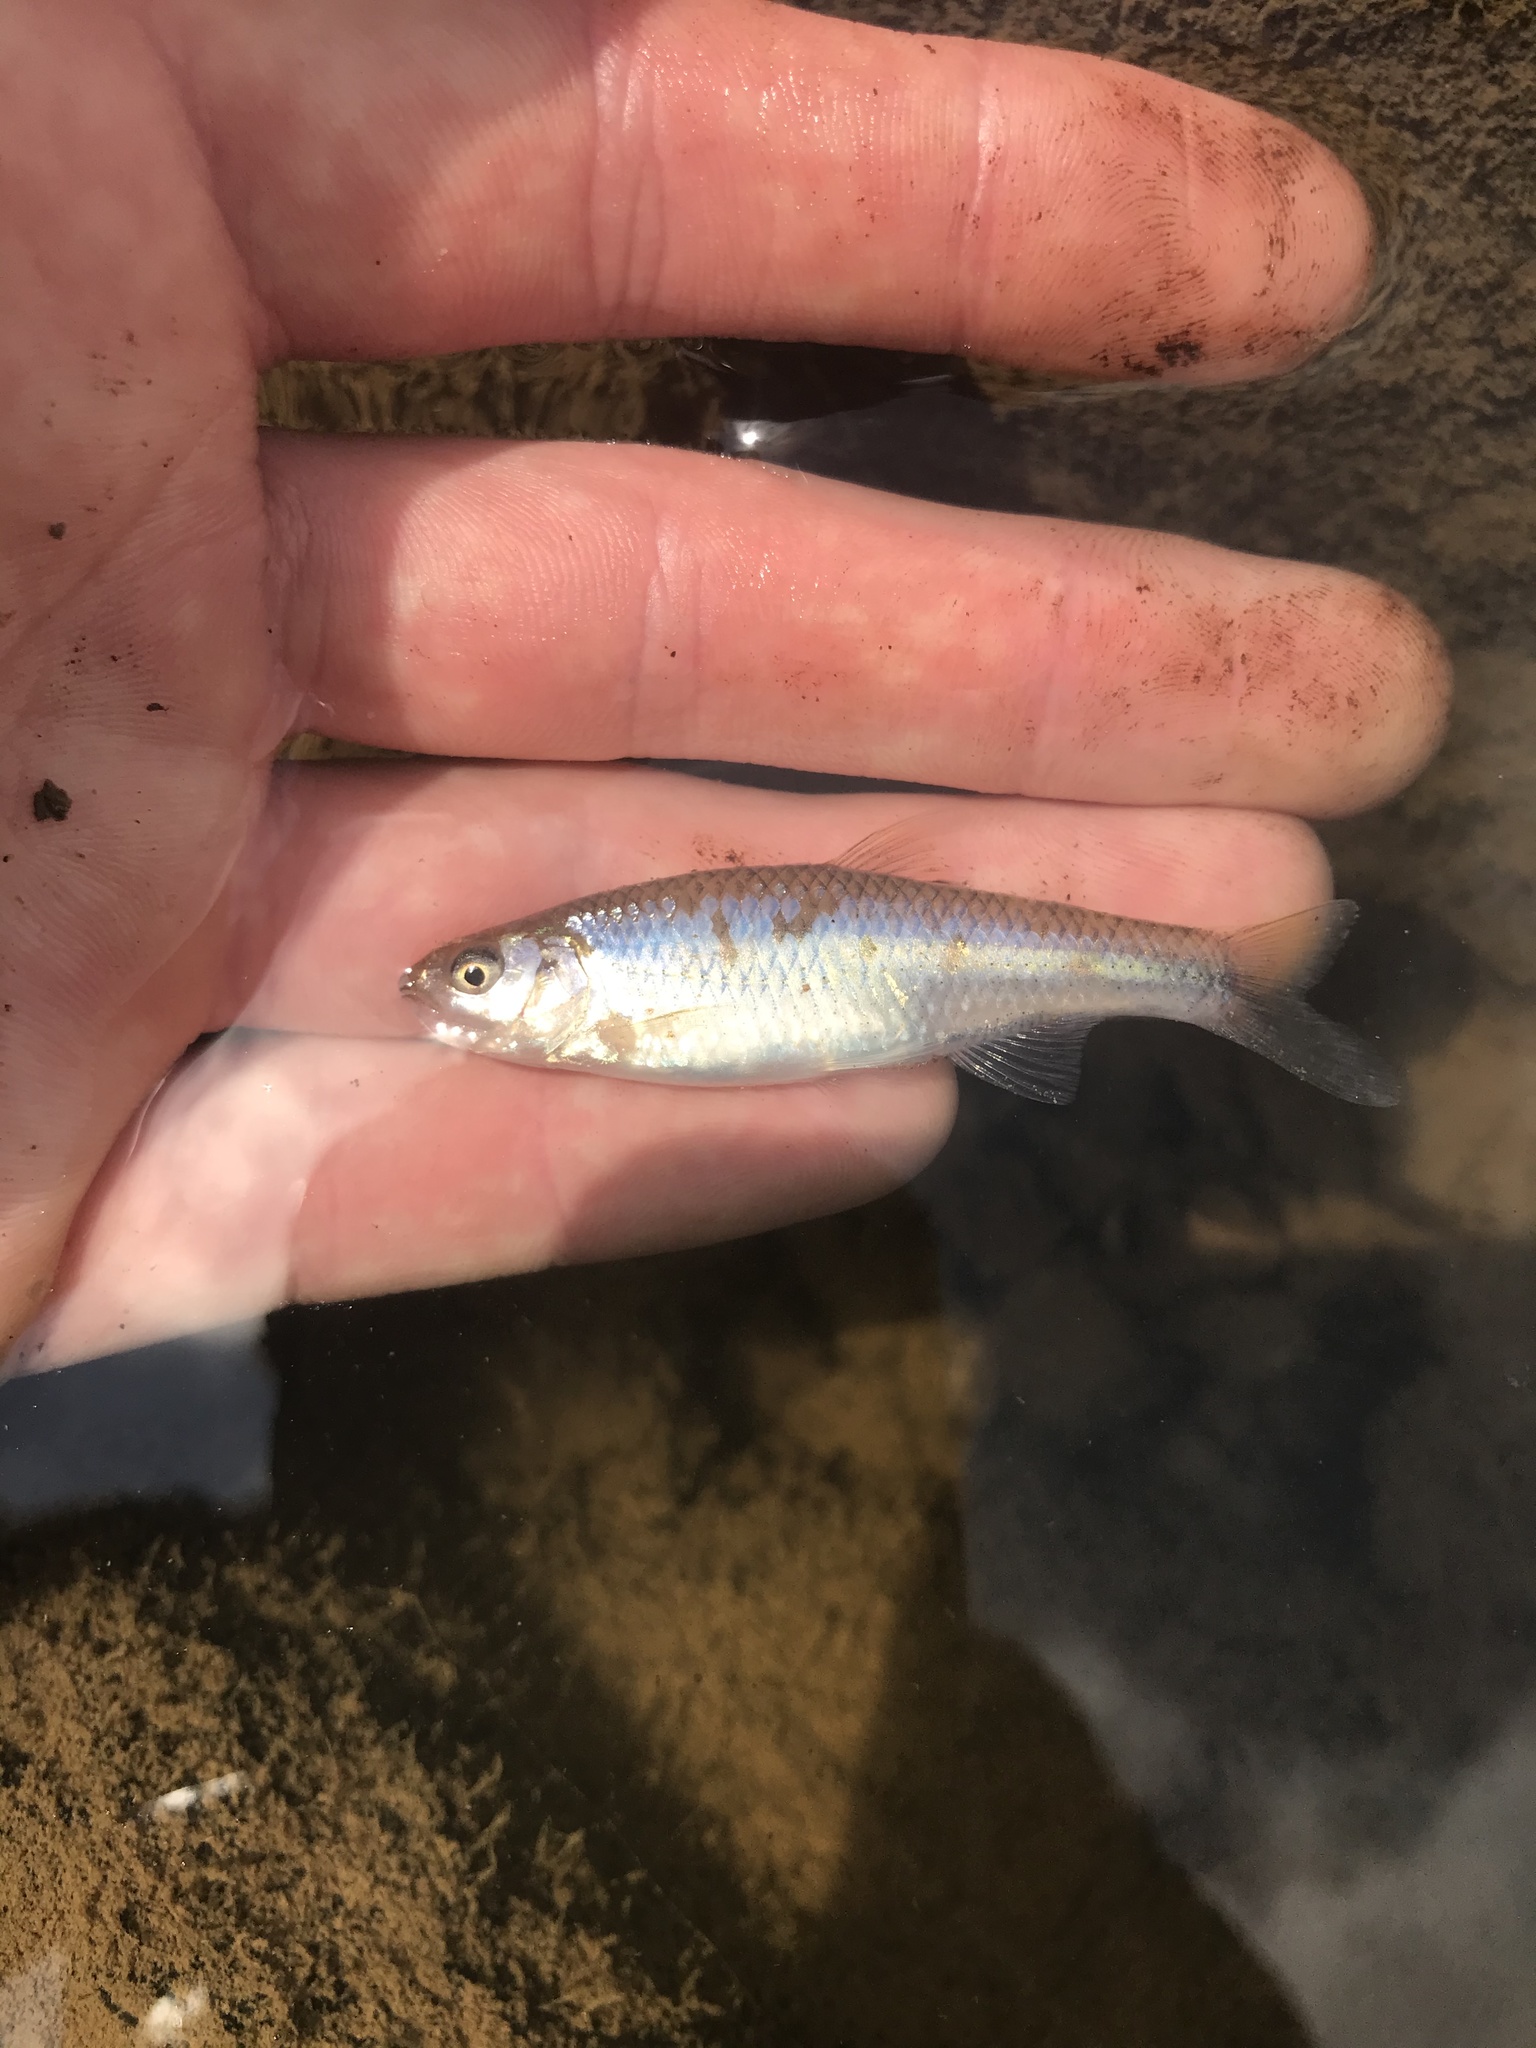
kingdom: Animalia
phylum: Chordata
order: Cypriniformes
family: Cyprinidae
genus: Cyprinella
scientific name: Cyprinella analostana
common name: Satinfin shiner
